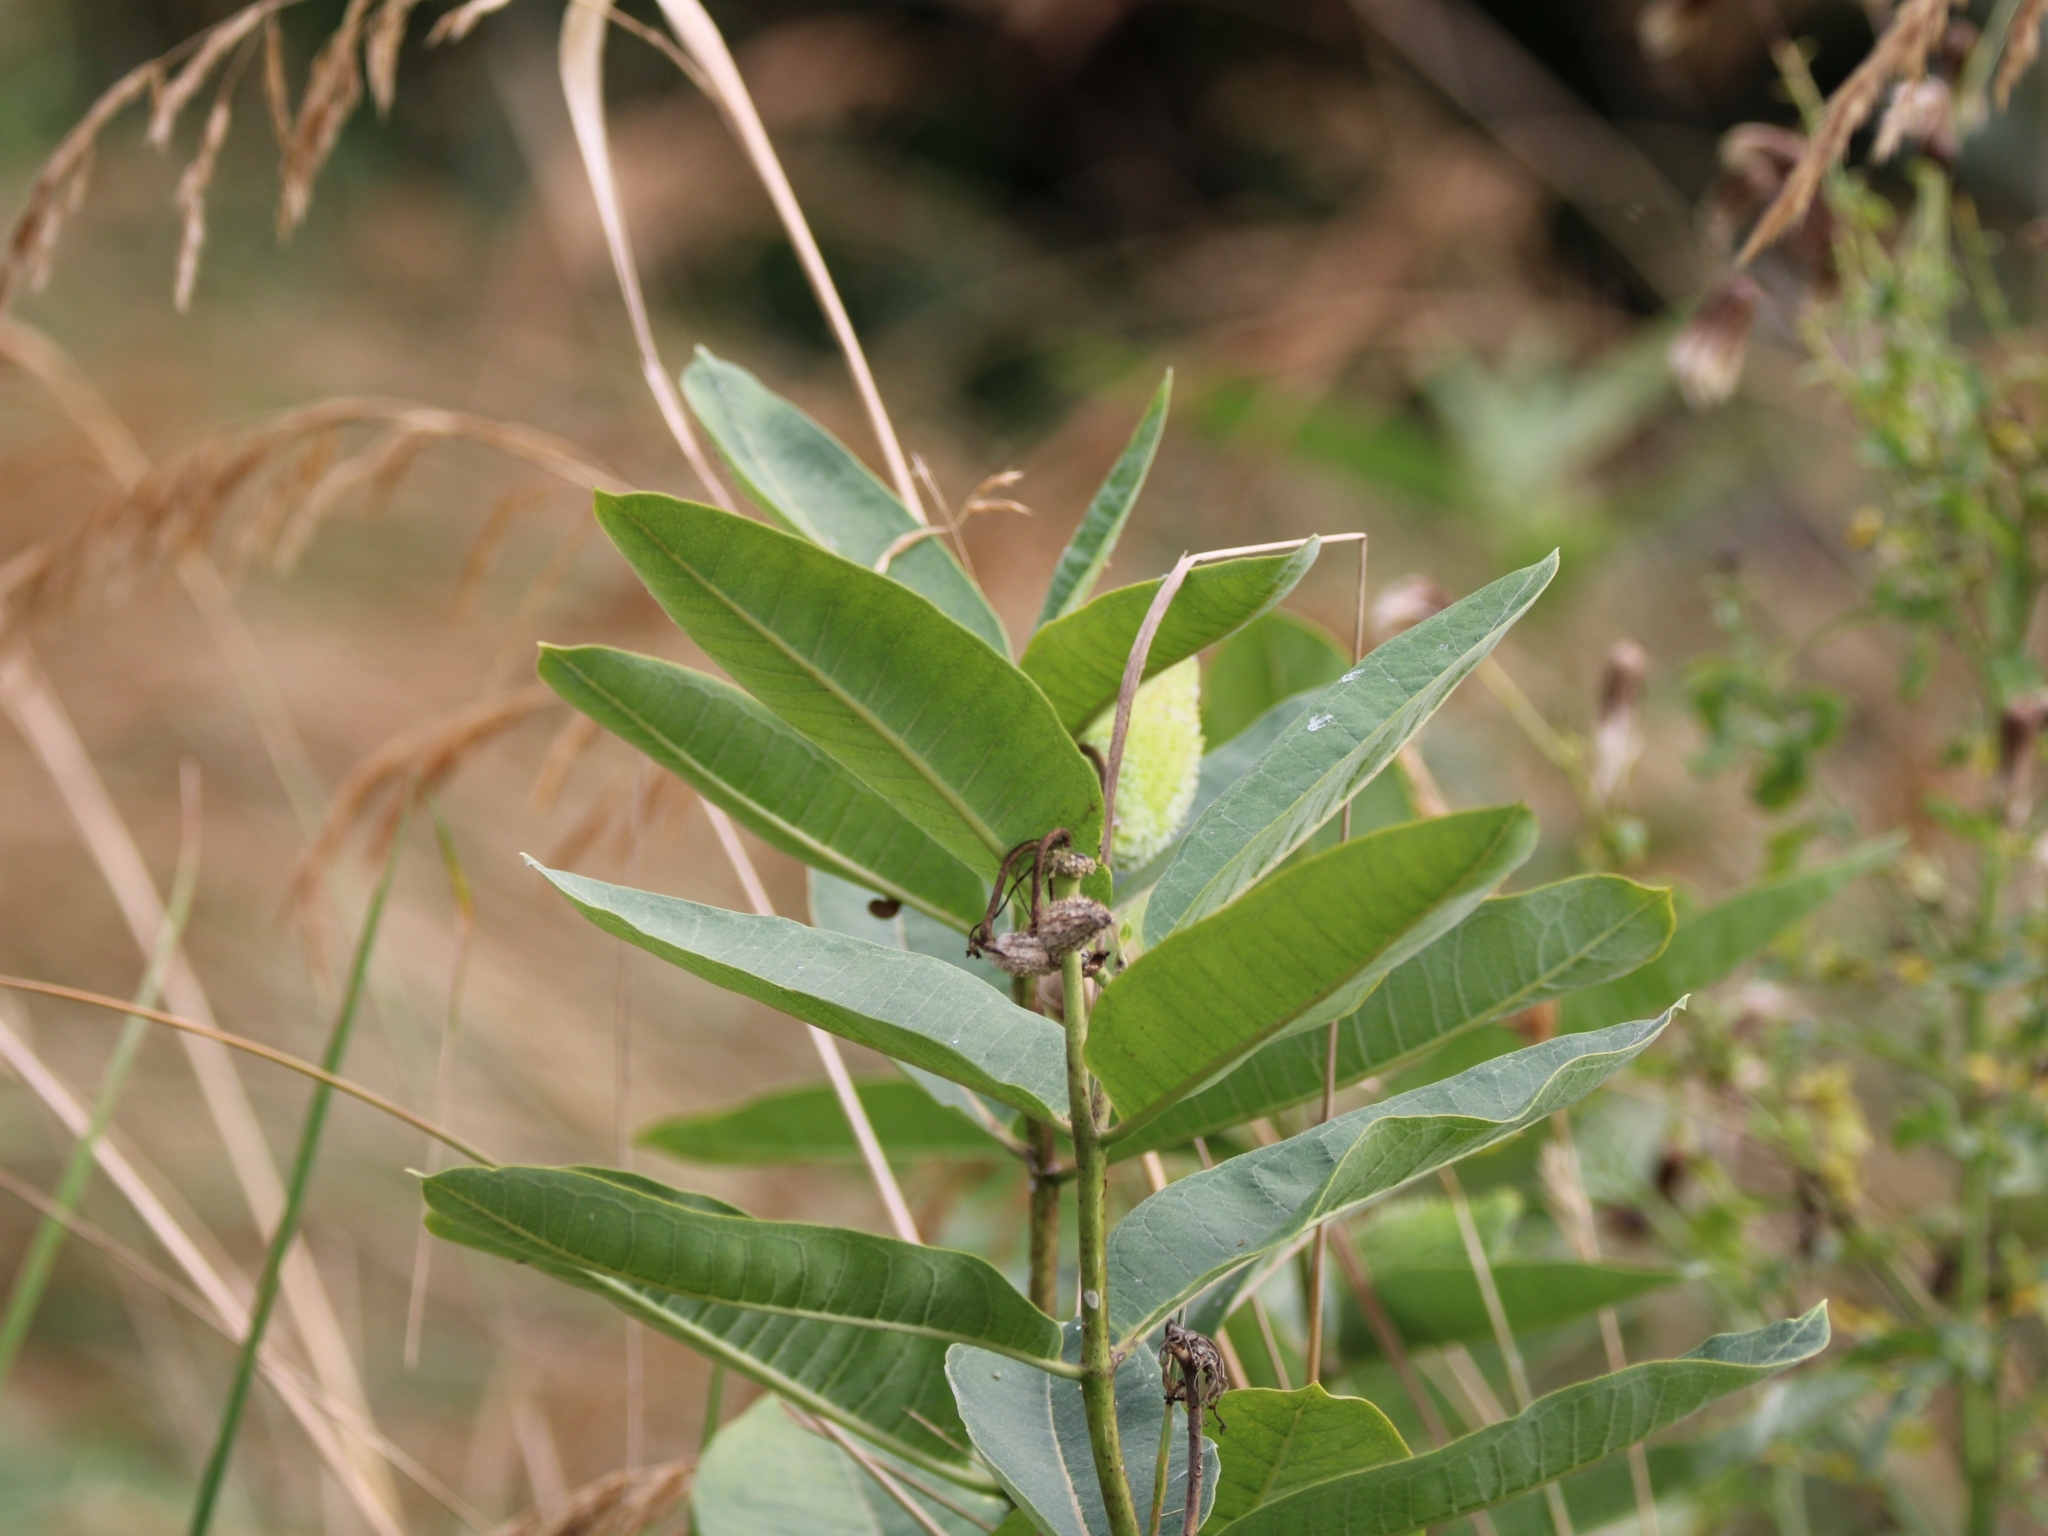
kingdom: Plantae
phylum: Tracheophyta
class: Magnoliopsida
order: Gentianales
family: Apocynaceae
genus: Asclepias
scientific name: Asclepias syriaca
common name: Common milkweed
